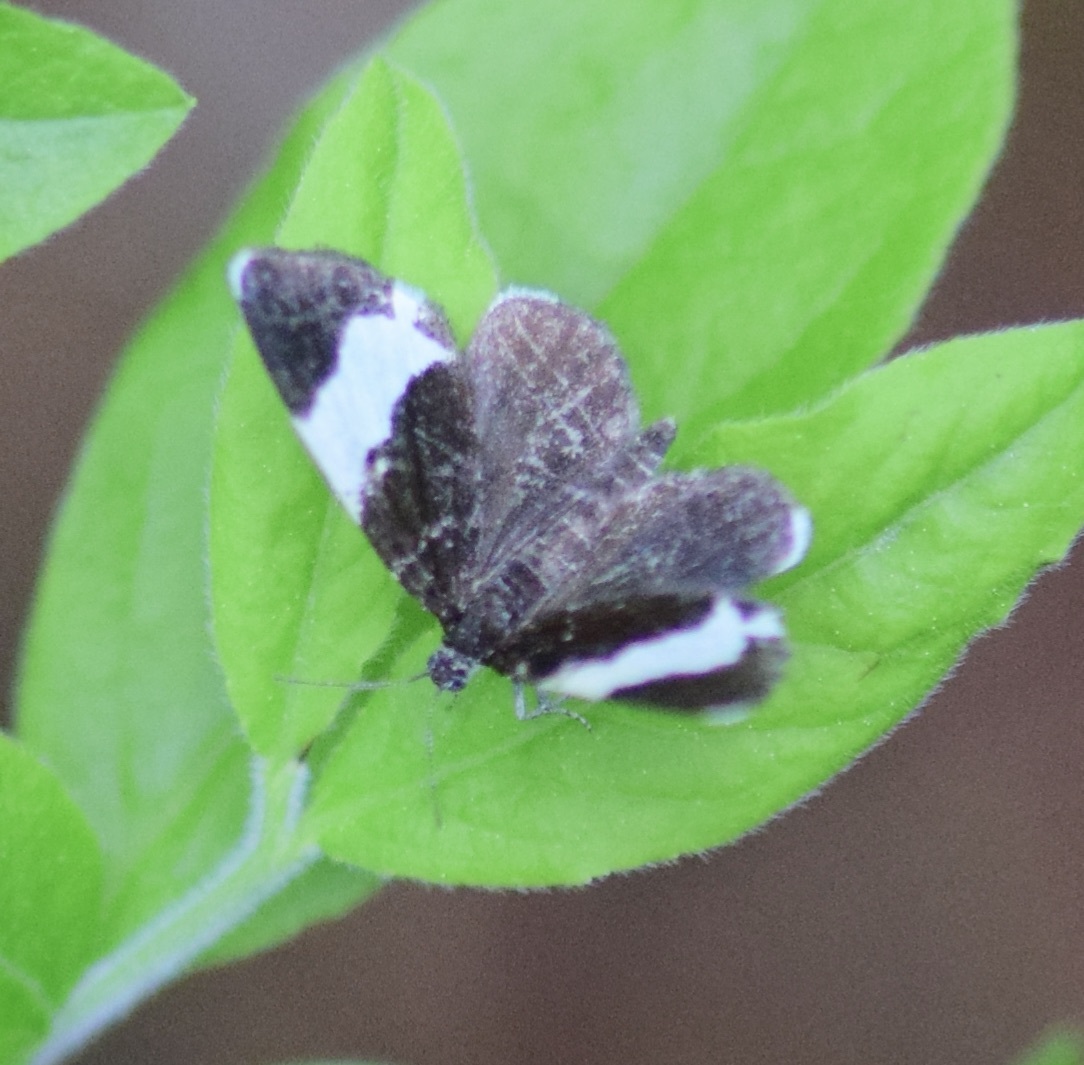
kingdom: Animalia
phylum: Arthropoda
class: Insecta
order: Lepidoptera
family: Geometridae
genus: Trichodezia
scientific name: Trichodezia albovittata
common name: White striped black
